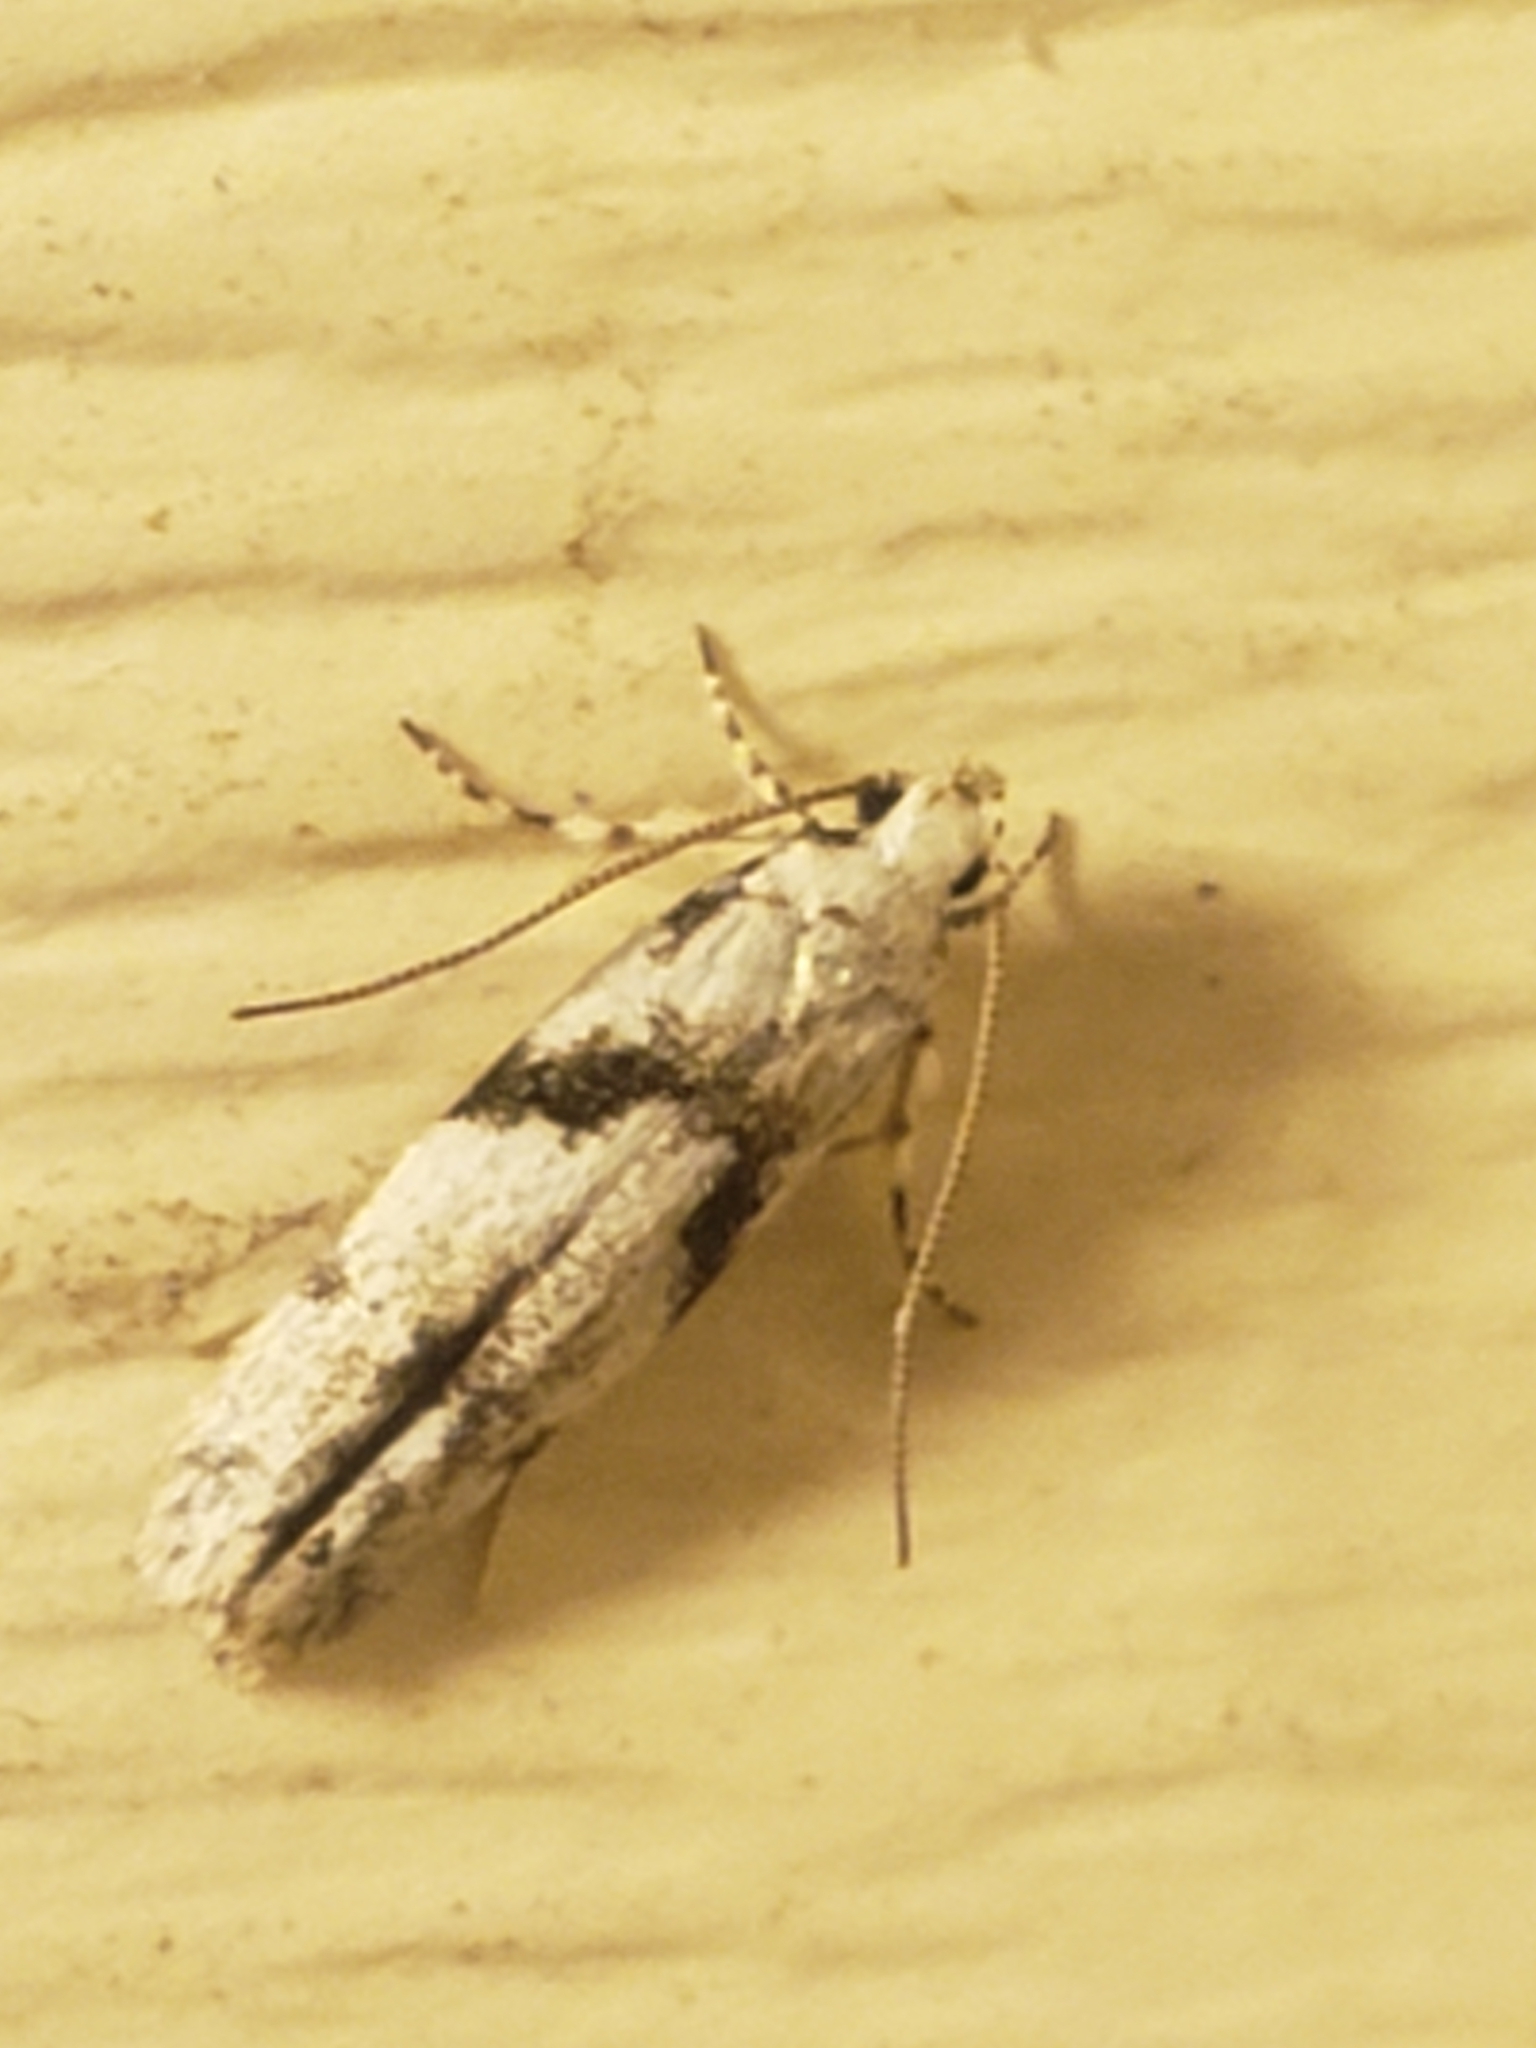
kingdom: Animalia
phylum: Arthropoda
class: Insecta
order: Lepidoptera
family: Gelechiidae
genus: Arogalea
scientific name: Arogalea cristifasciella
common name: White stripe-backed moth
